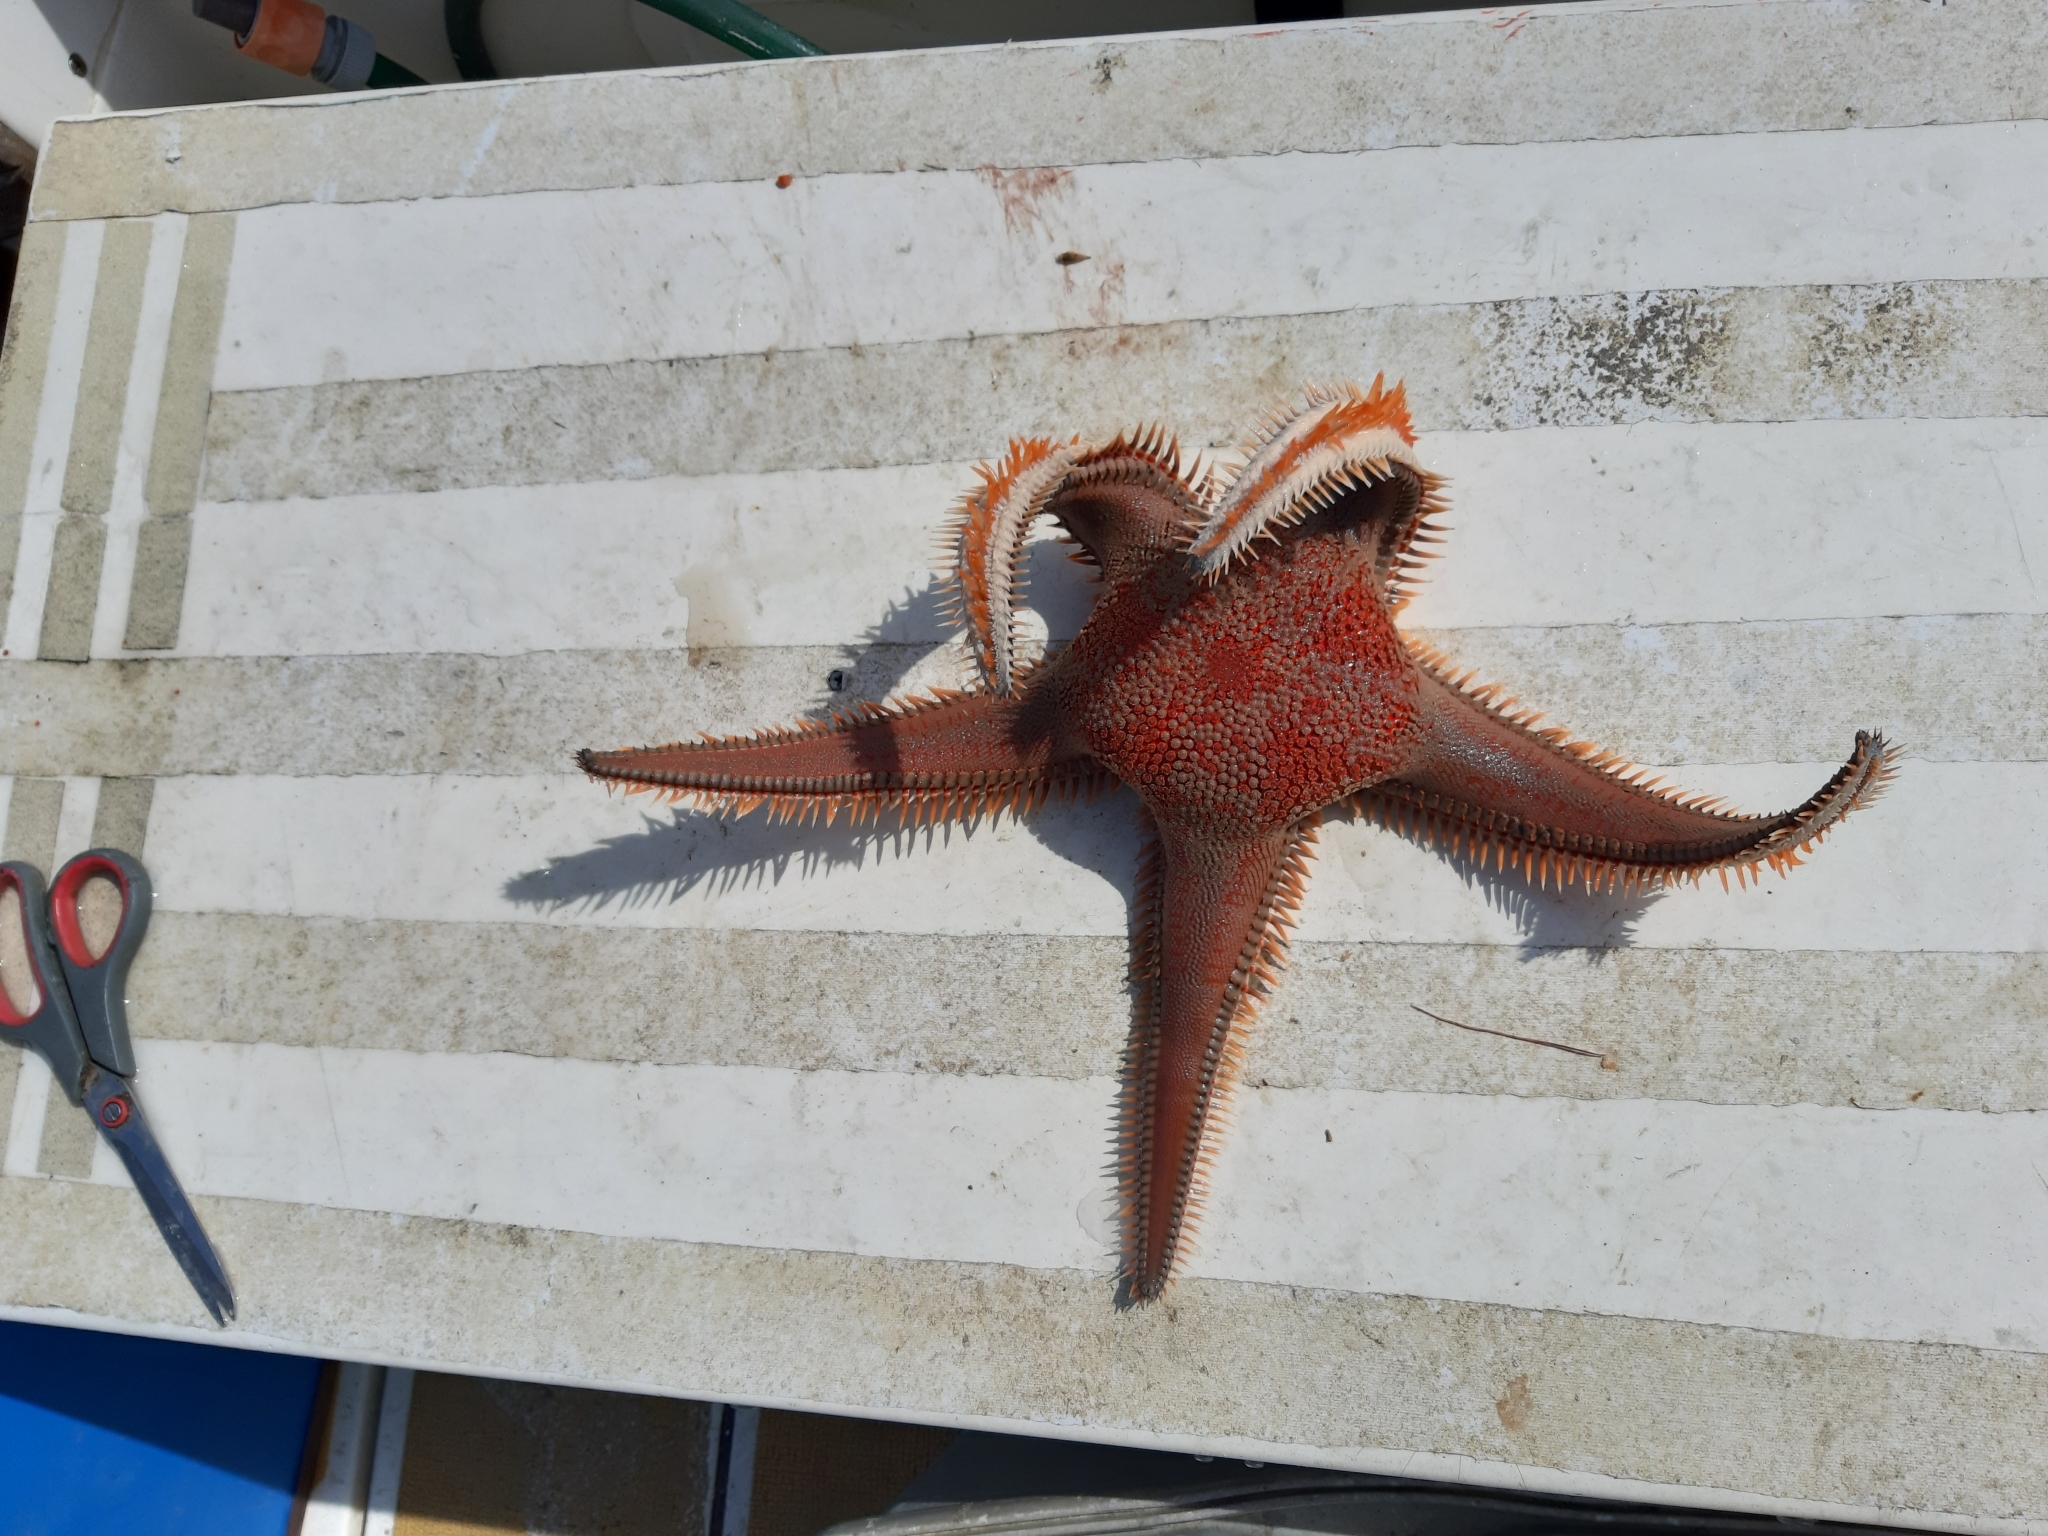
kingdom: Animalia
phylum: Echinodermata
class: Asteroidea
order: Paxillosida
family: Astropectinidae
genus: Astropecten
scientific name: Astropecten aranciacus
